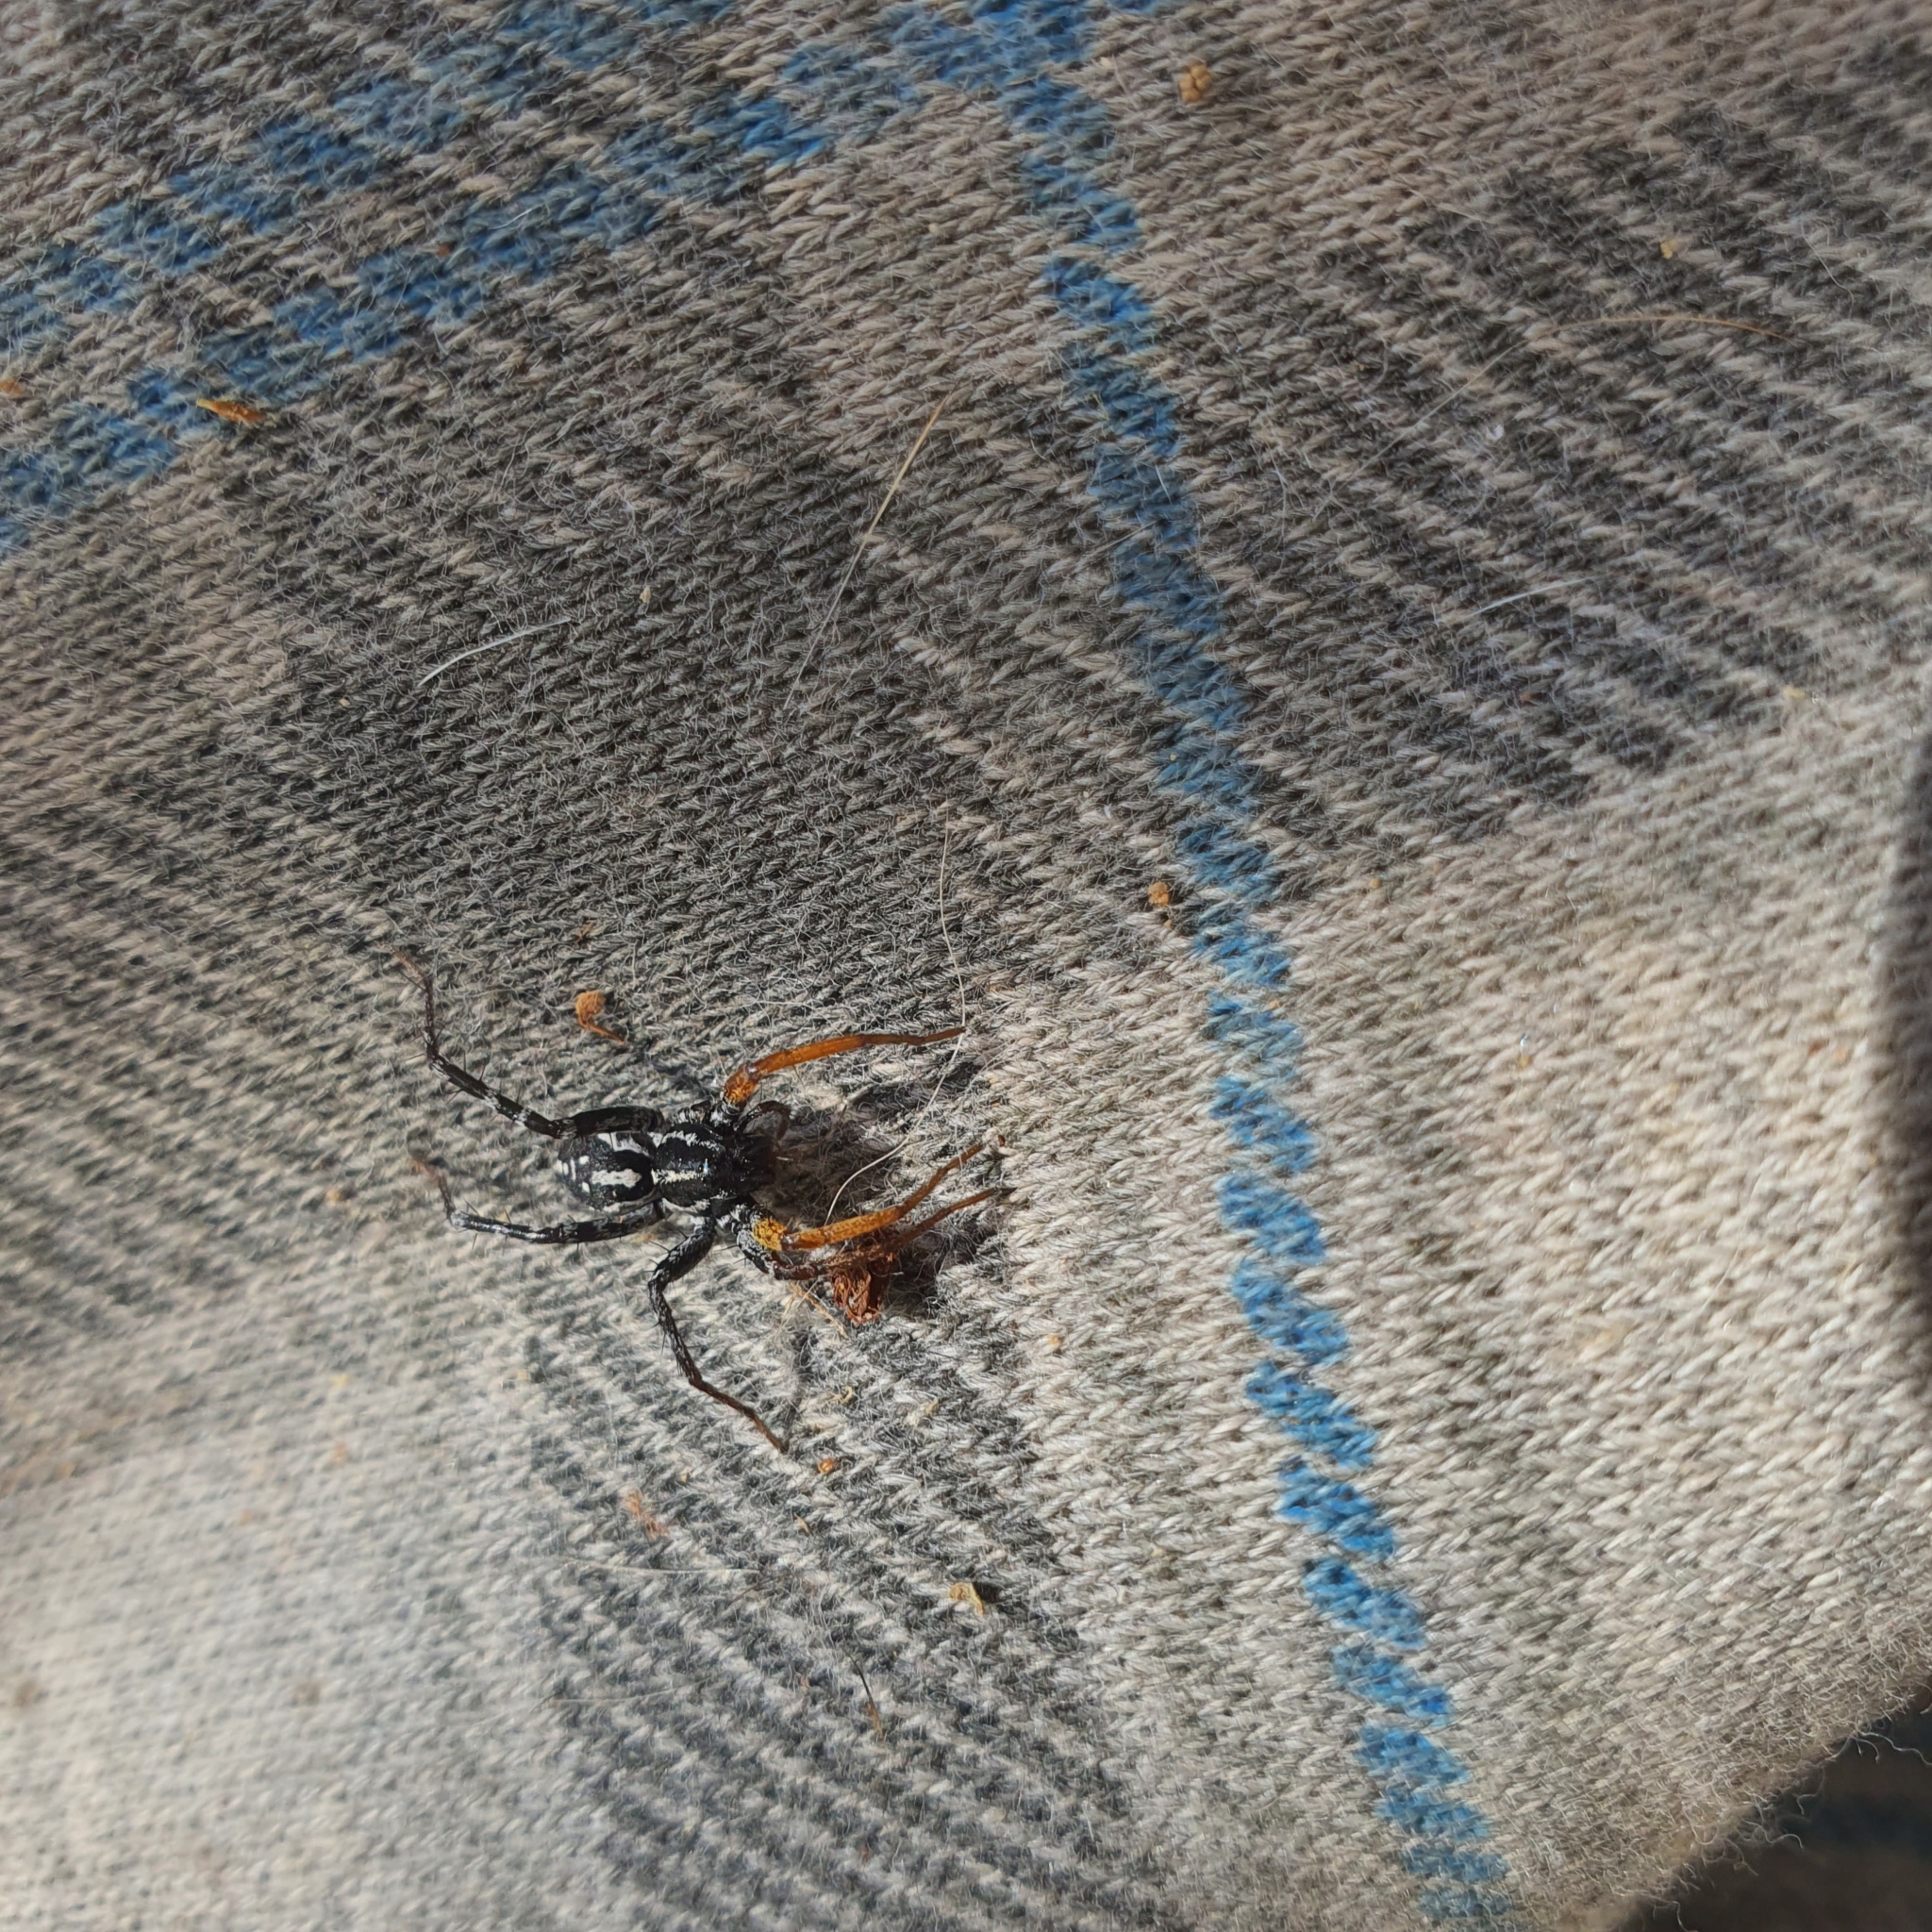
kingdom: Animalia
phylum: Arthropoda
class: Arachnida
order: Araneae
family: Corinnidae
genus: Nyssus
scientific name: Nyssus coloripes
